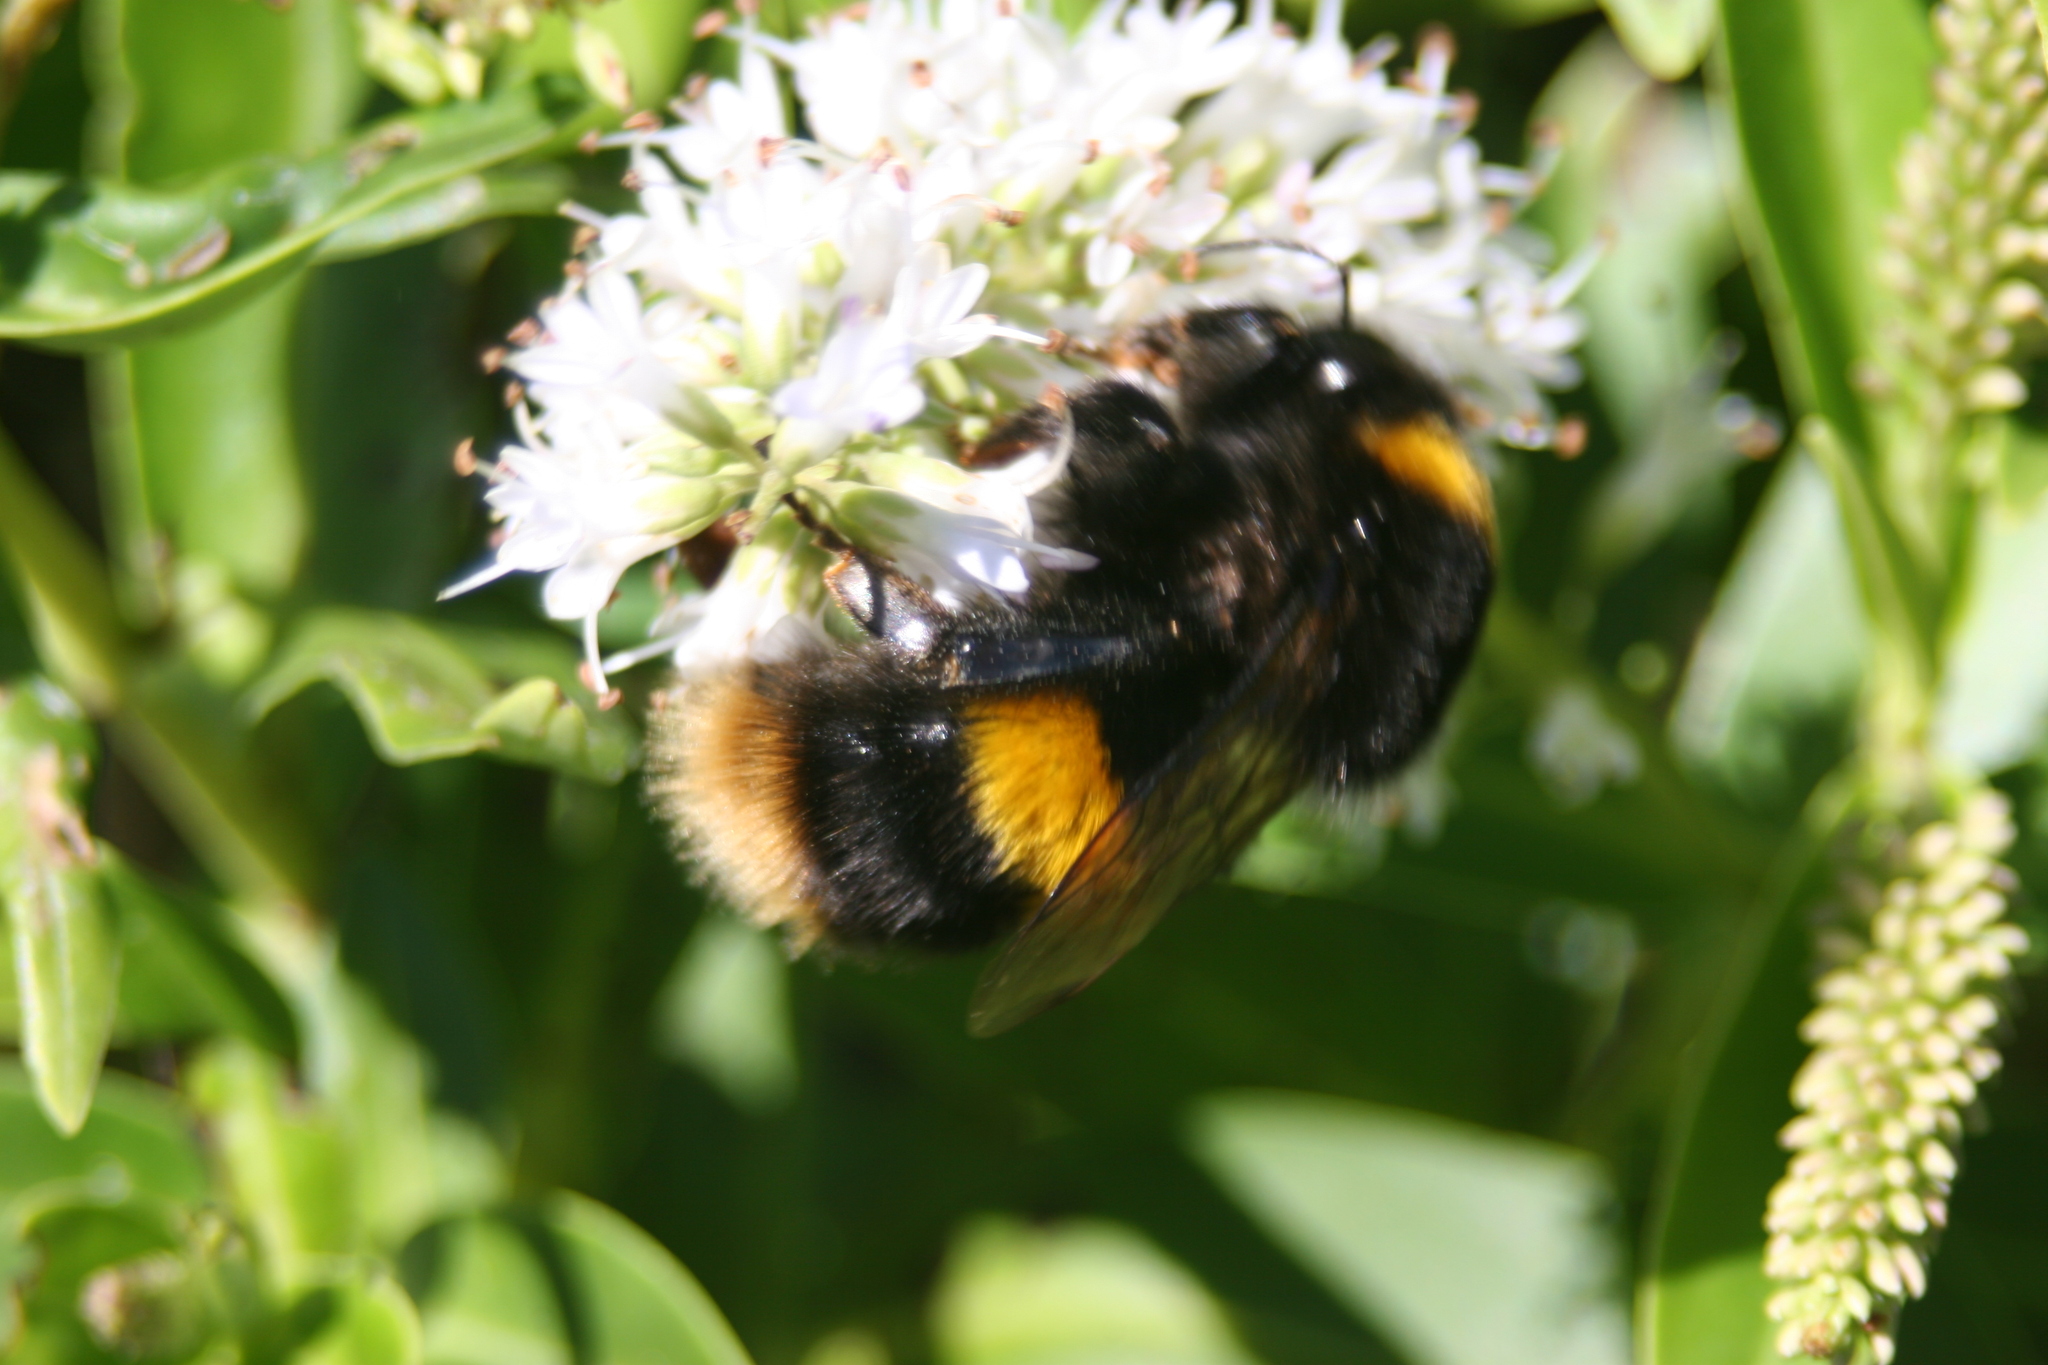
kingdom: Animalia
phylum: Arthropoda
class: Insecta
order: Hymenoptera
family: Apidae
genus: Bombus
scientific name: Bombus terrestris
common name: Buff-tailed bumblebee
